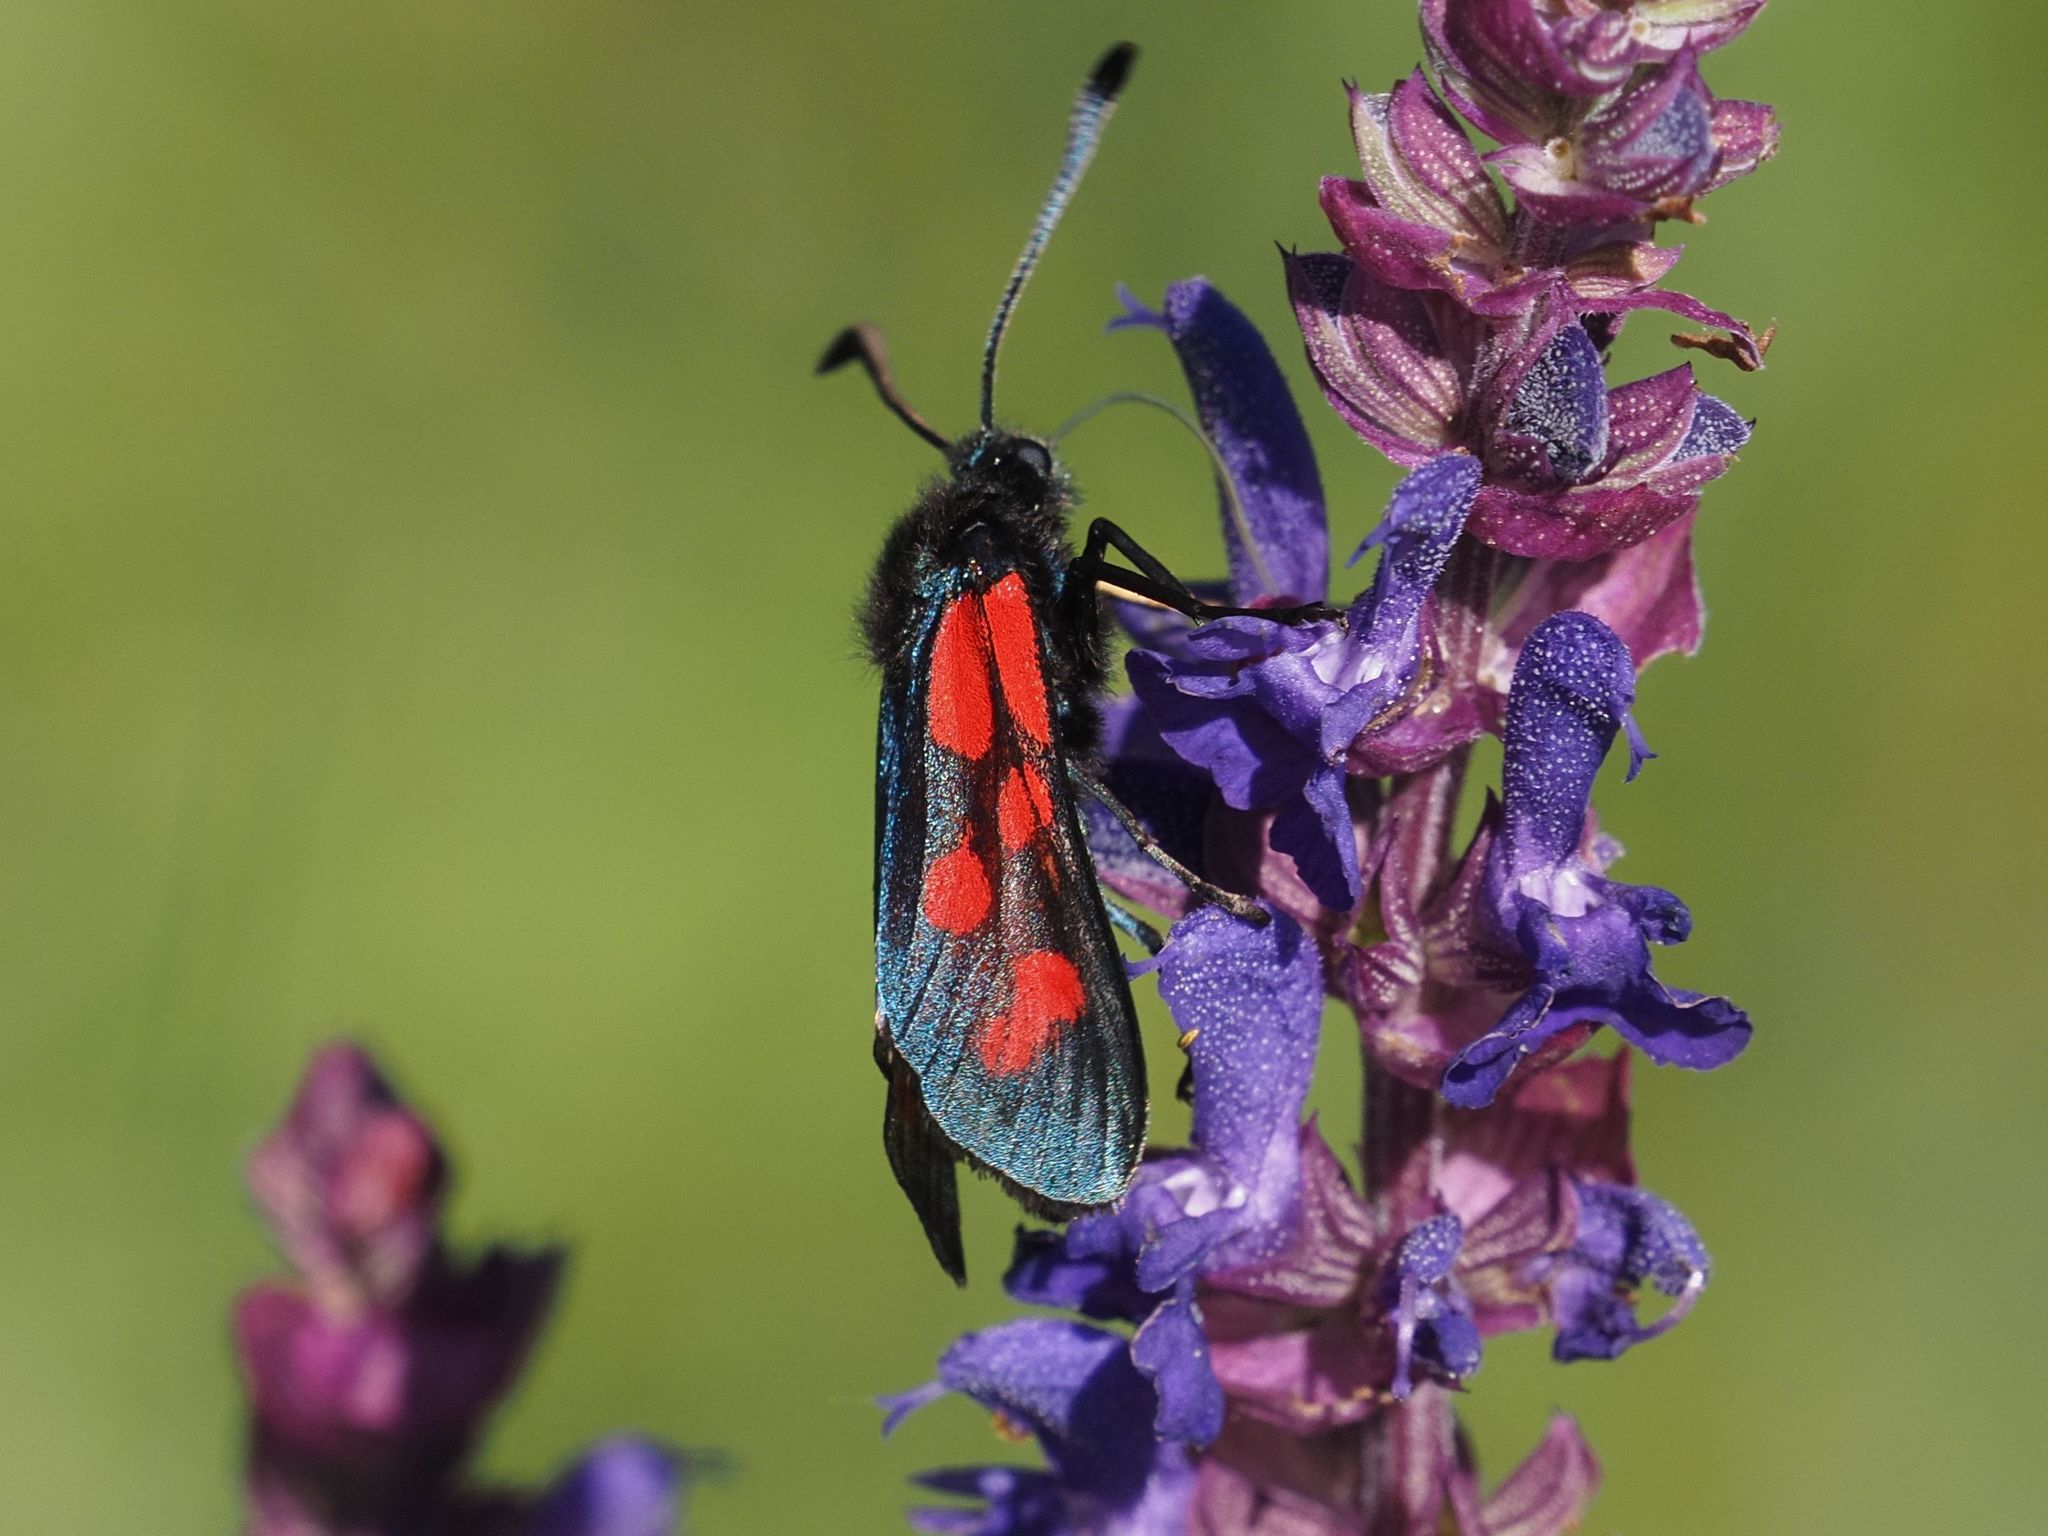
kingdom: Animalia
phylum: Arthropoda
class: Insecta
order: Lepidoptera
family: Zygaenidae
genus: Zygaena
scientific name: Zygaena loti
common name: Slender scotch burnet
